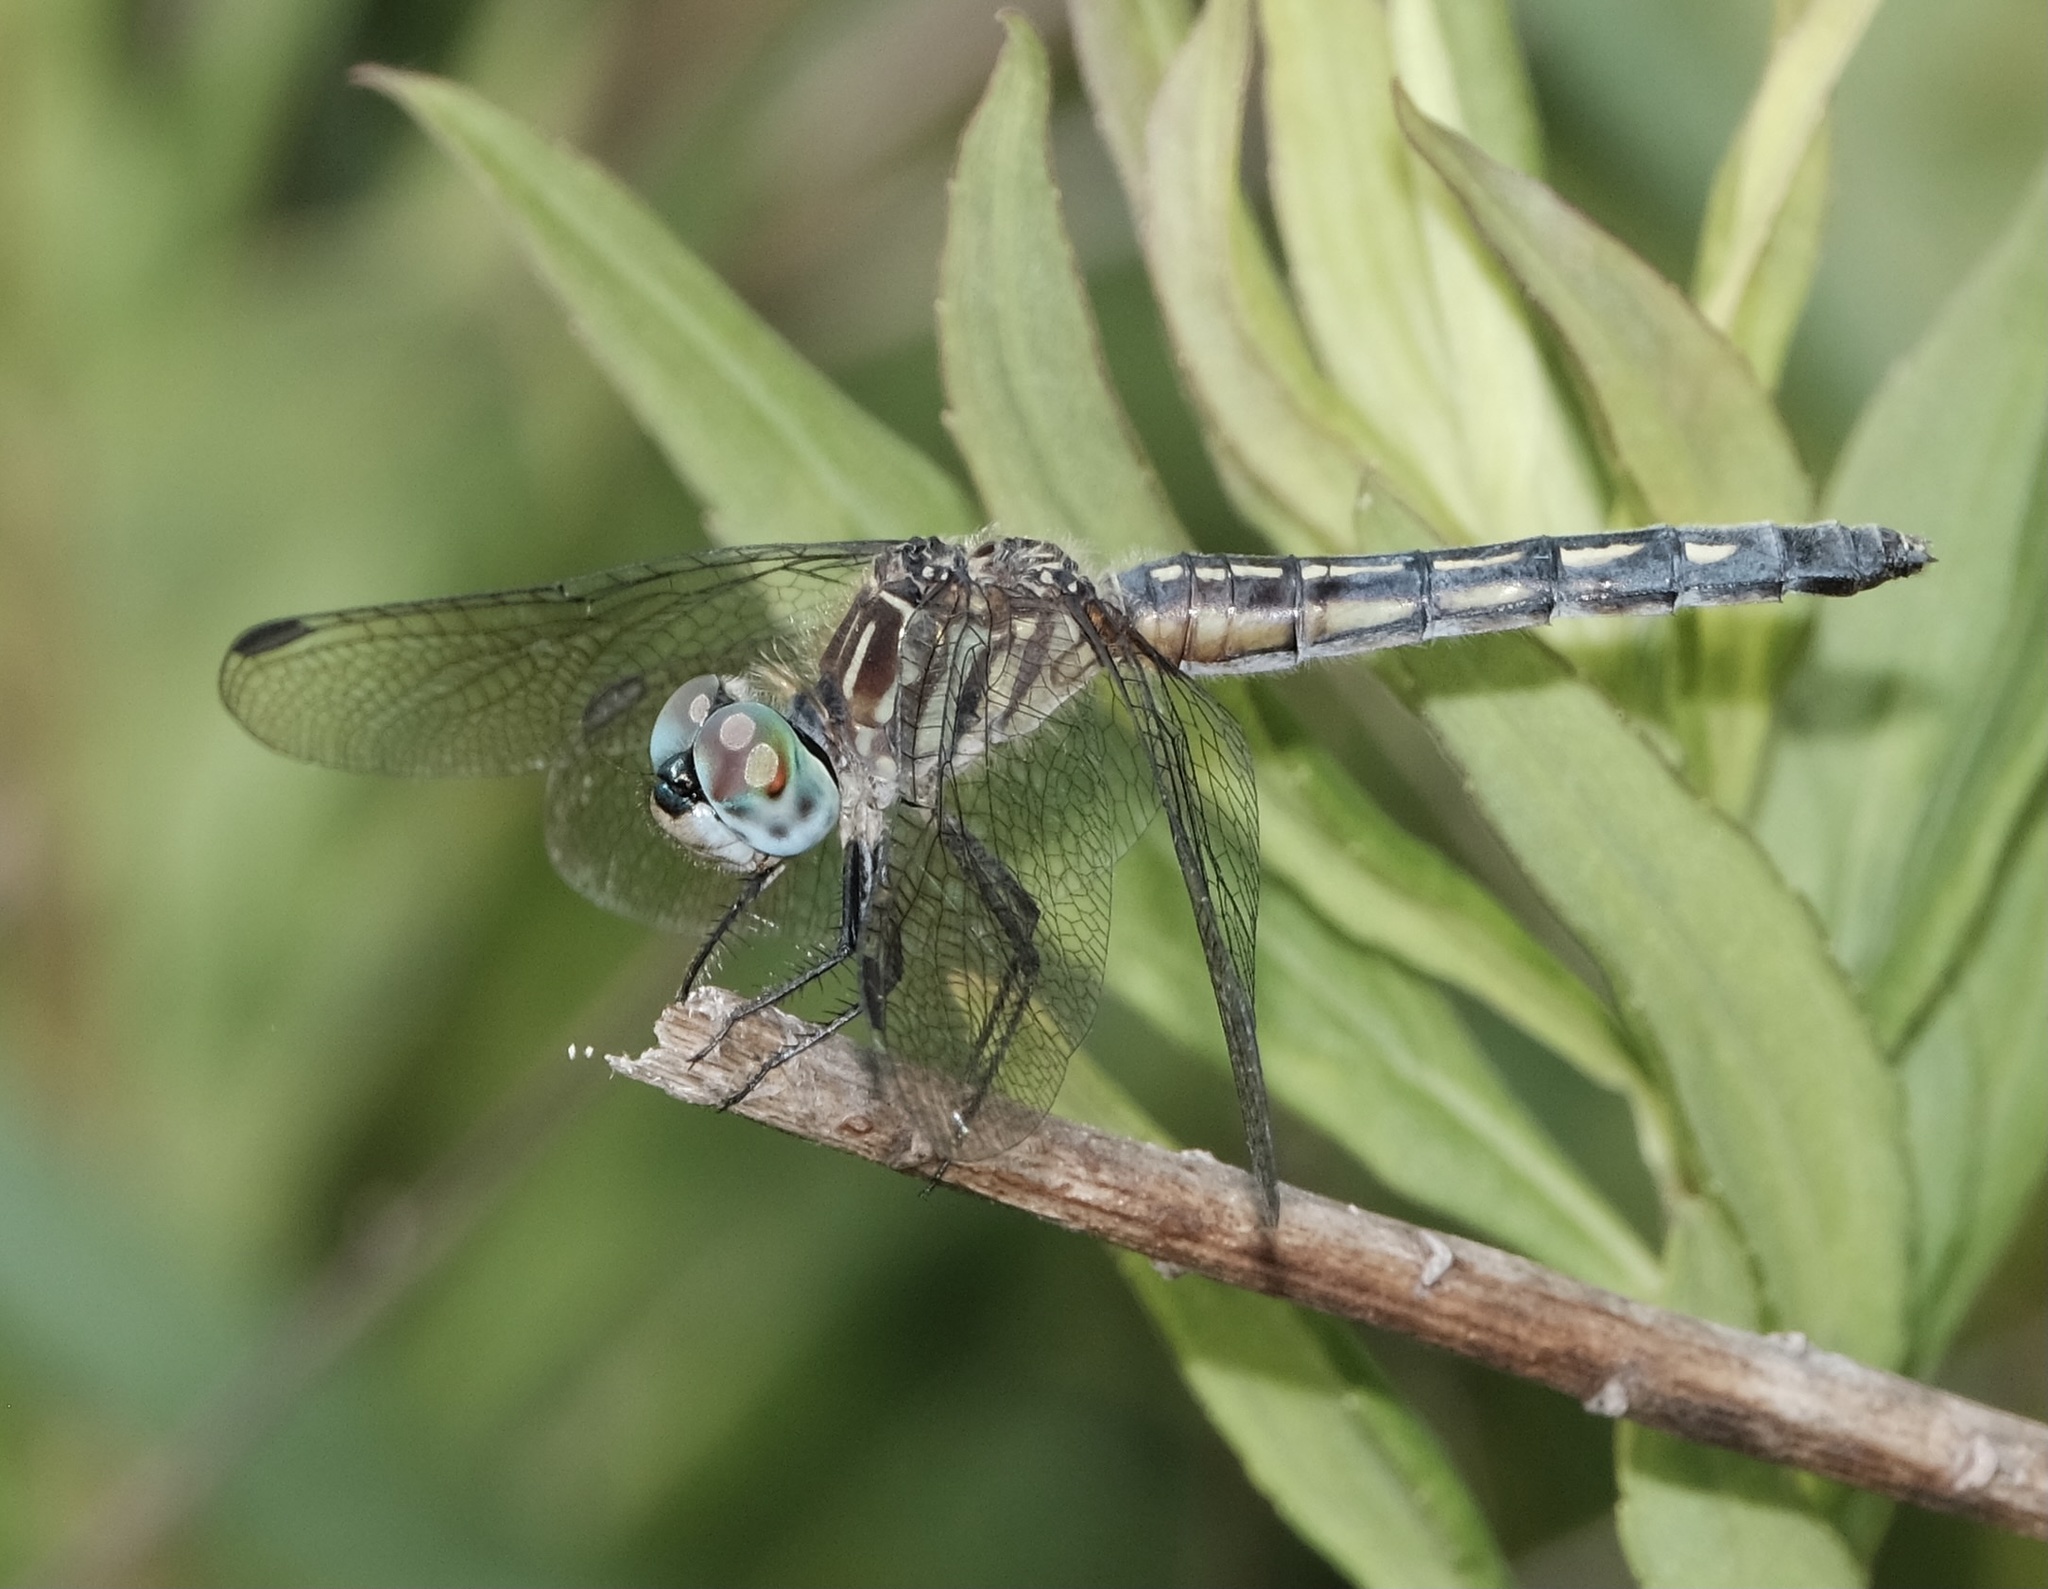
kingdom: Animalia
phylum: Arthropoda
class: Insecta
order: Odonata
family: Libellulidae
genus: Pachydiplax
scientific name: Pachydiplax longipennis
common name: Blue dasher
